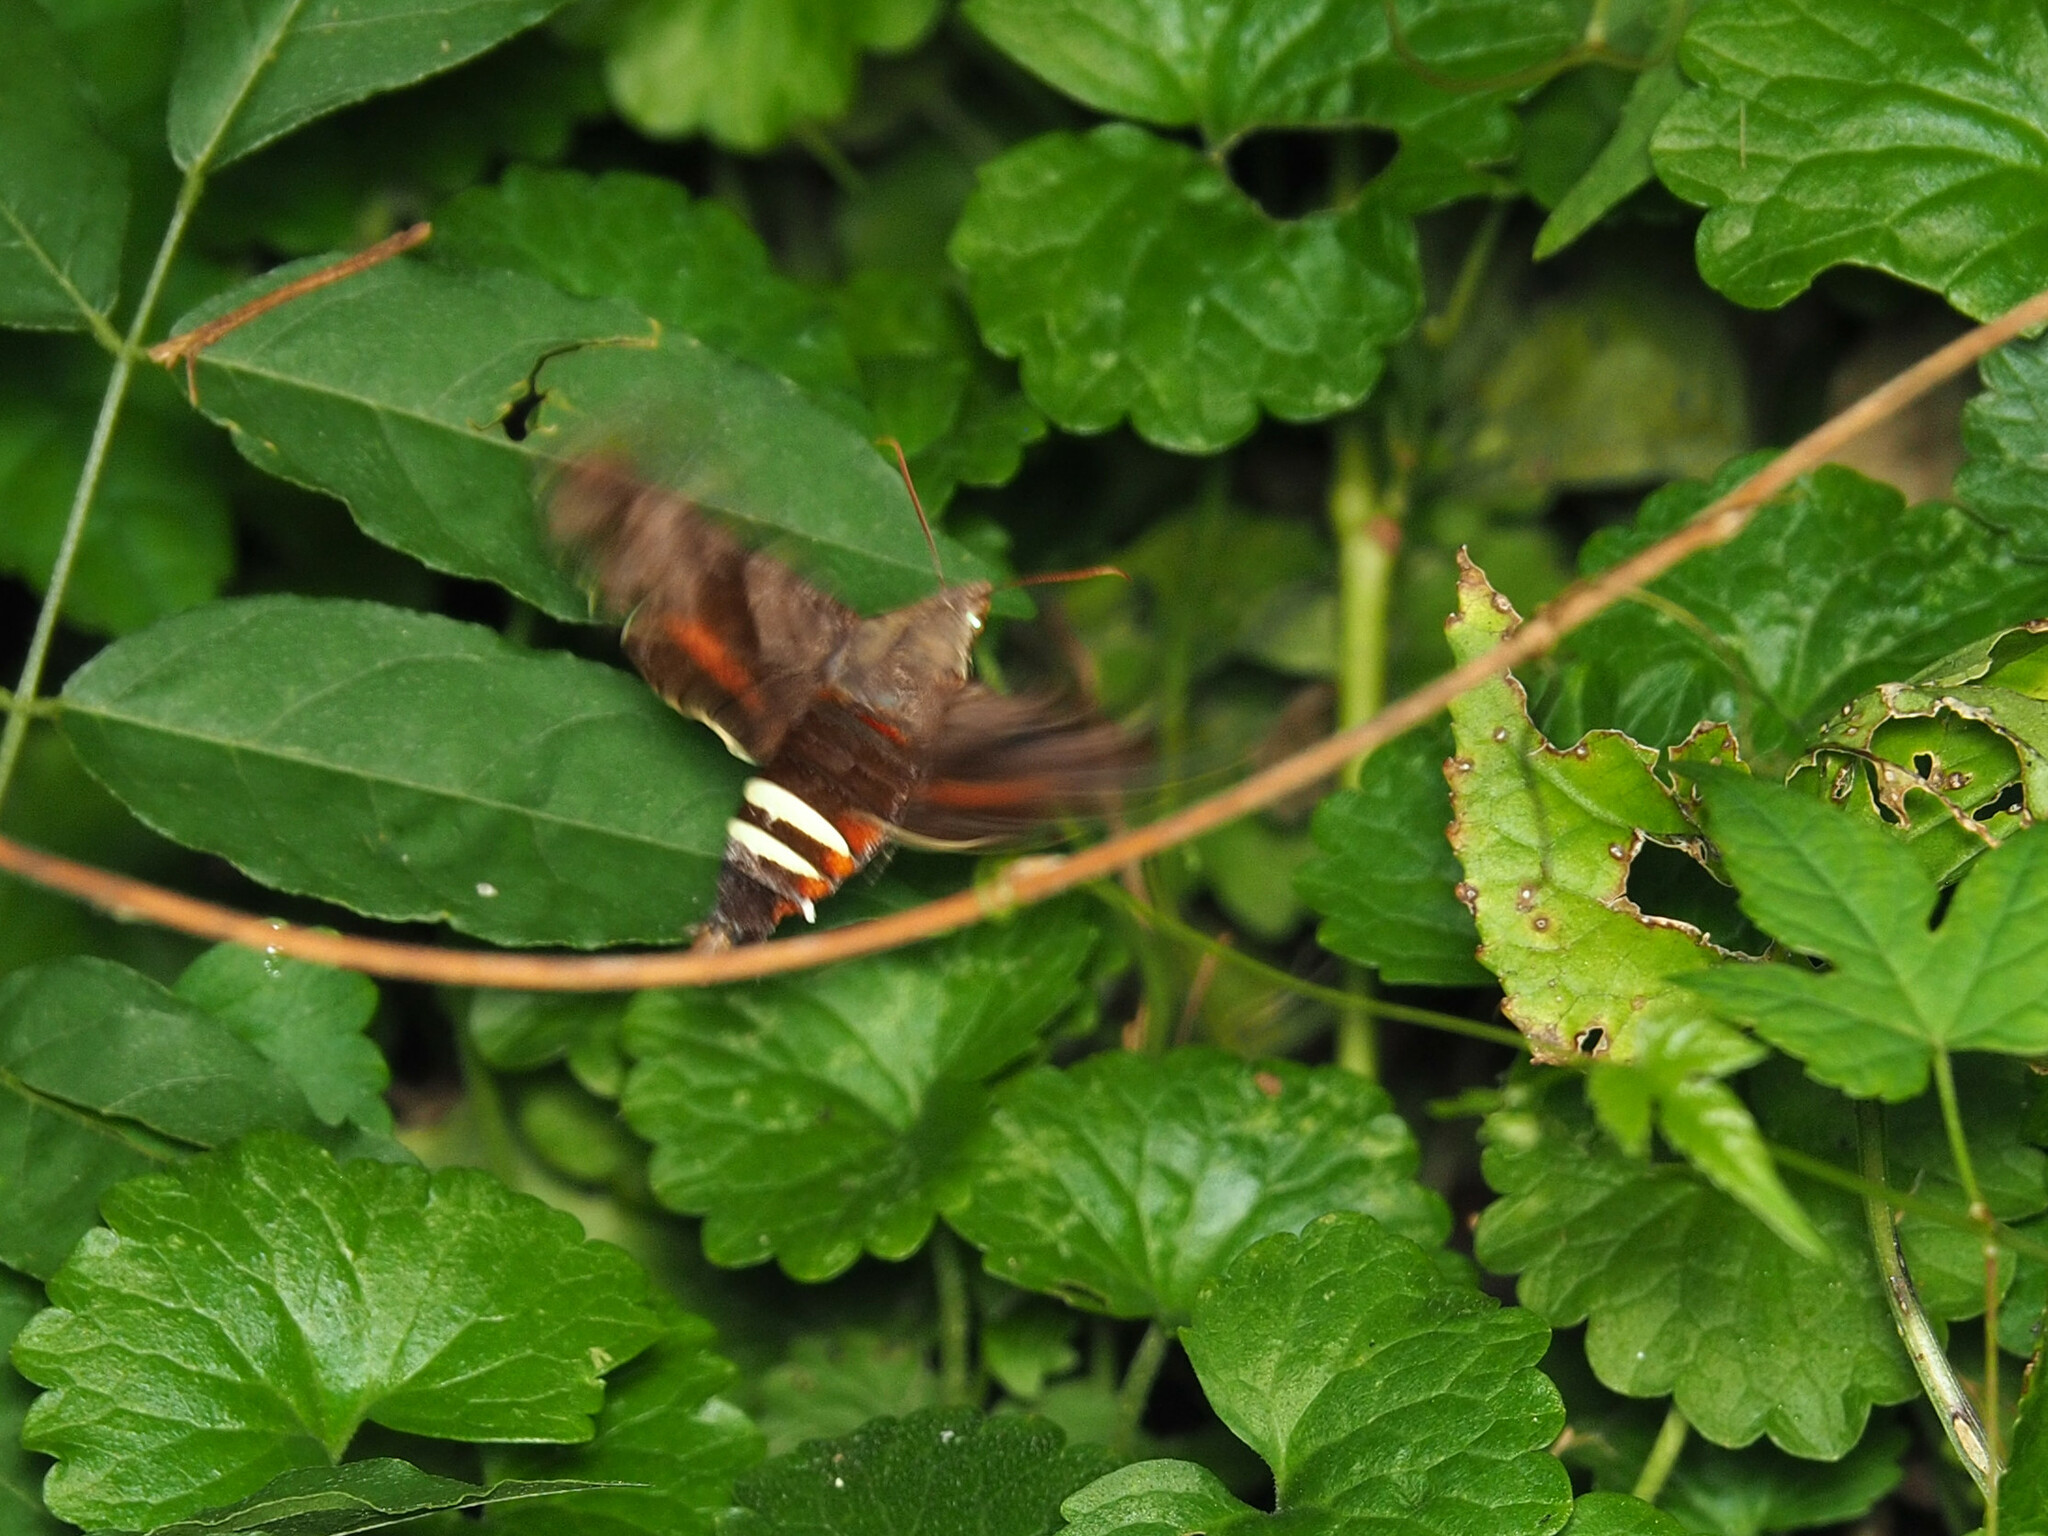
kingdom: Animalia
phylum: Arthropoda
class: Insecta
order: Lepidoptera
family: Sphingidae
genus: Amphion
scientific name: Amphion floridensis
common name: Nessus sphinx
